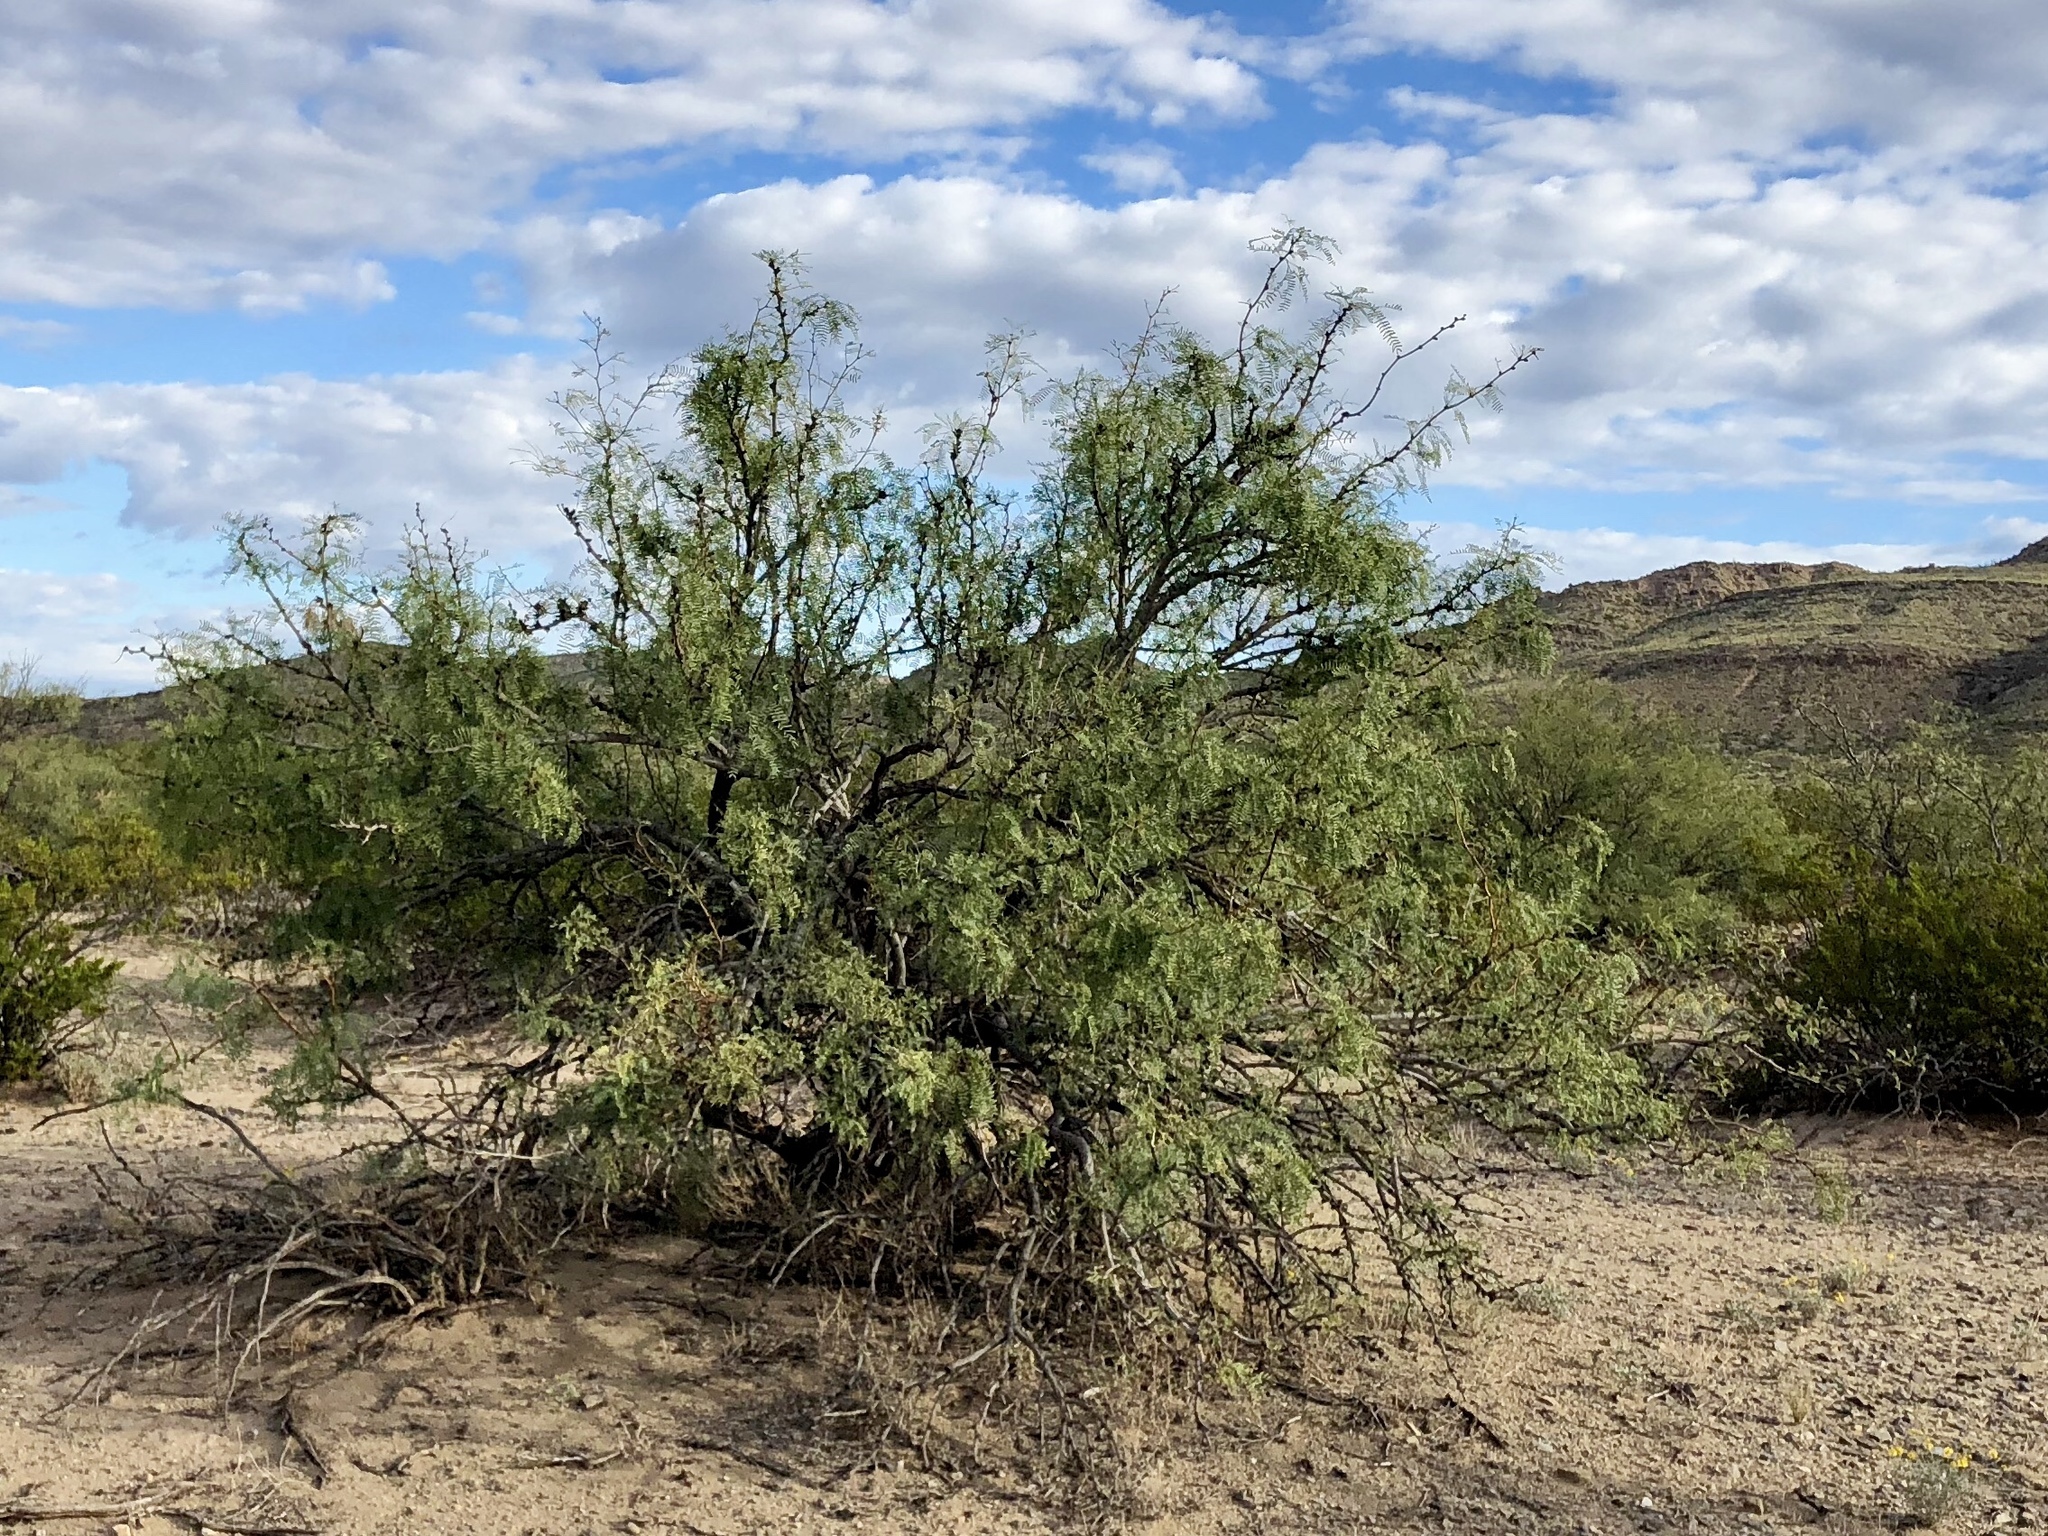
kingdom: Plantae
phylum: Tracheophyta
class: Magnoliopsida
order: Fabales
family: Fabaceae
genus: Prosopis
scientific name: Prosopis glandulosa
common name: Honey mesquite
